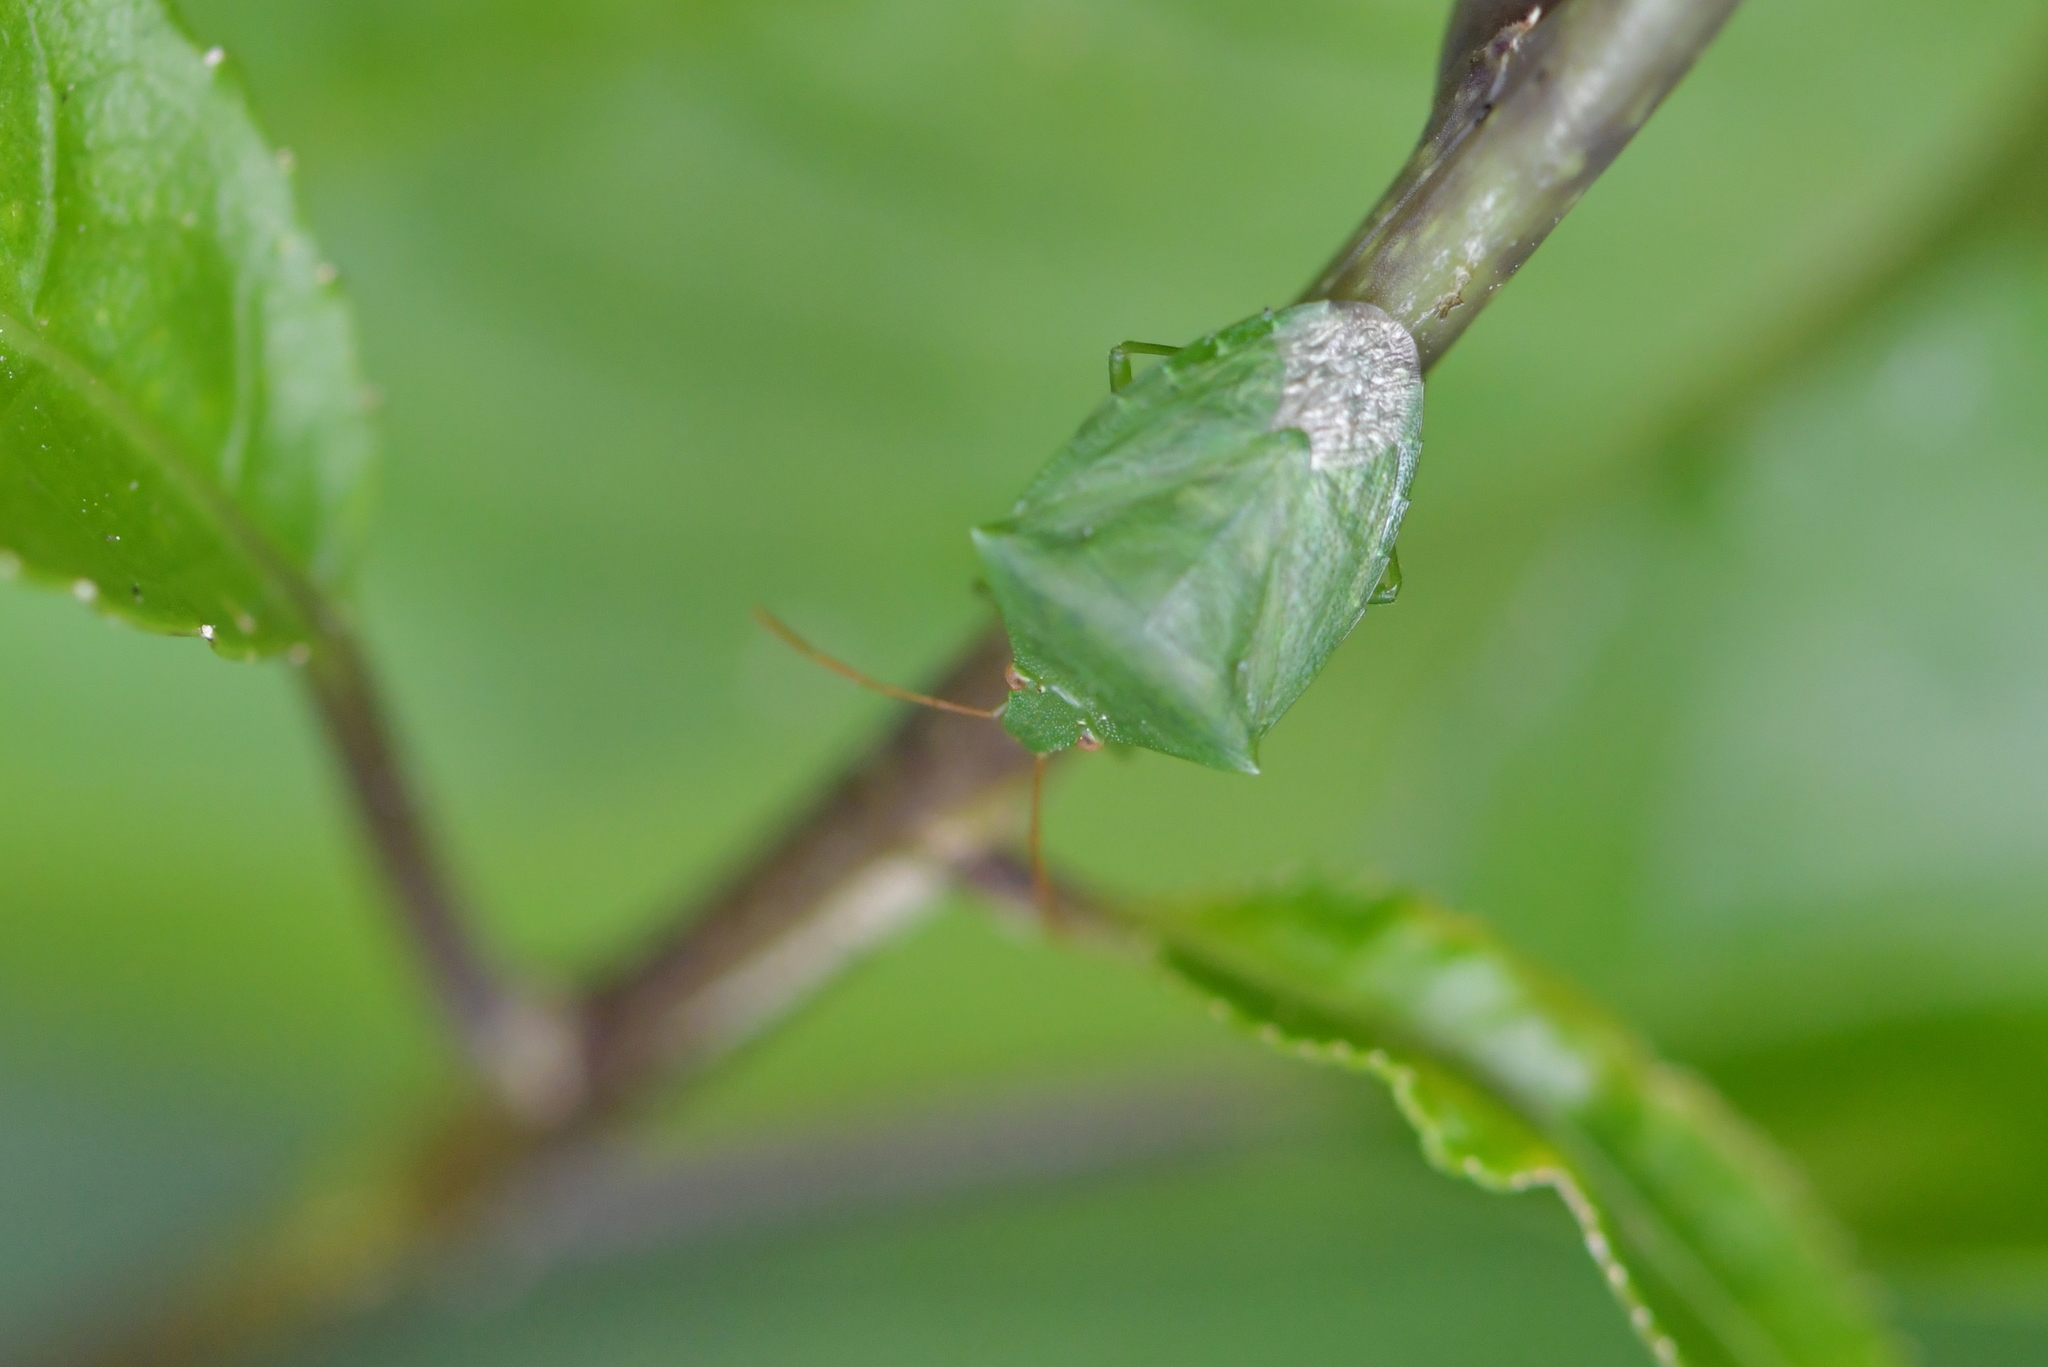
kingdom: Animalia
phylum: Arthropoda
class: Insecta
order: Hemiptera
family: Pentatomidae
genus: Cuspicona
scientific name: Cuspicona simplex
